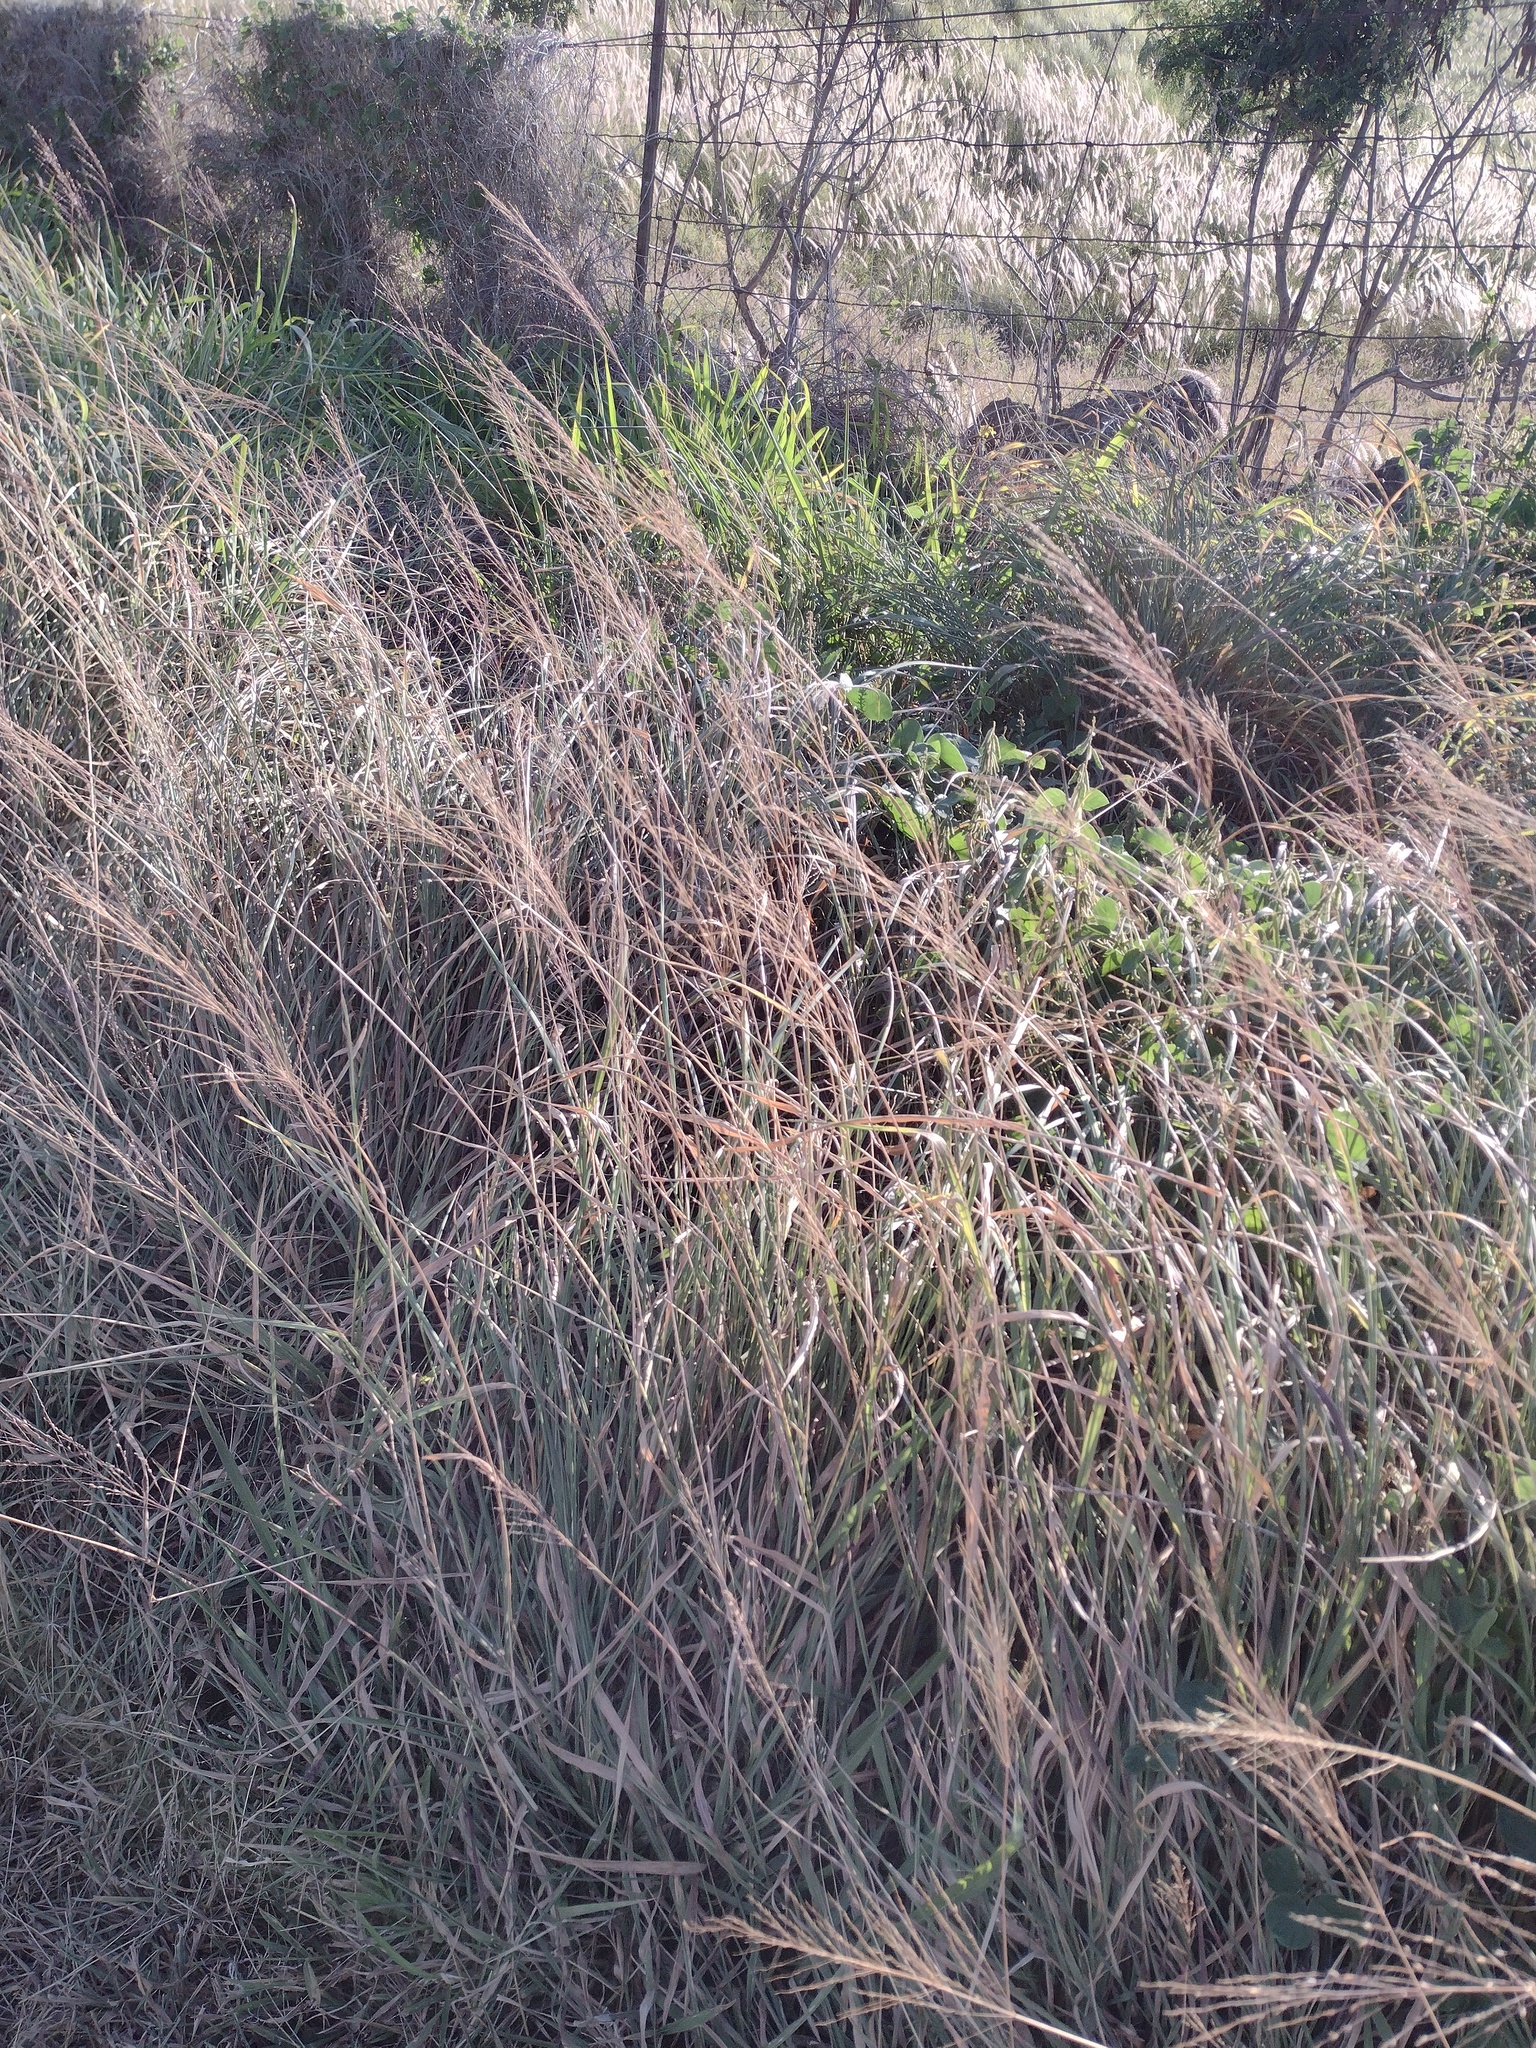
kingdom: Plantae
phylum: Tracheophyta
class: Liliopsida
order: Poales
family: Poaceae
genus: Megathyrsus
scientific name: Megathyrsus maximus
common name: Guineagrass
